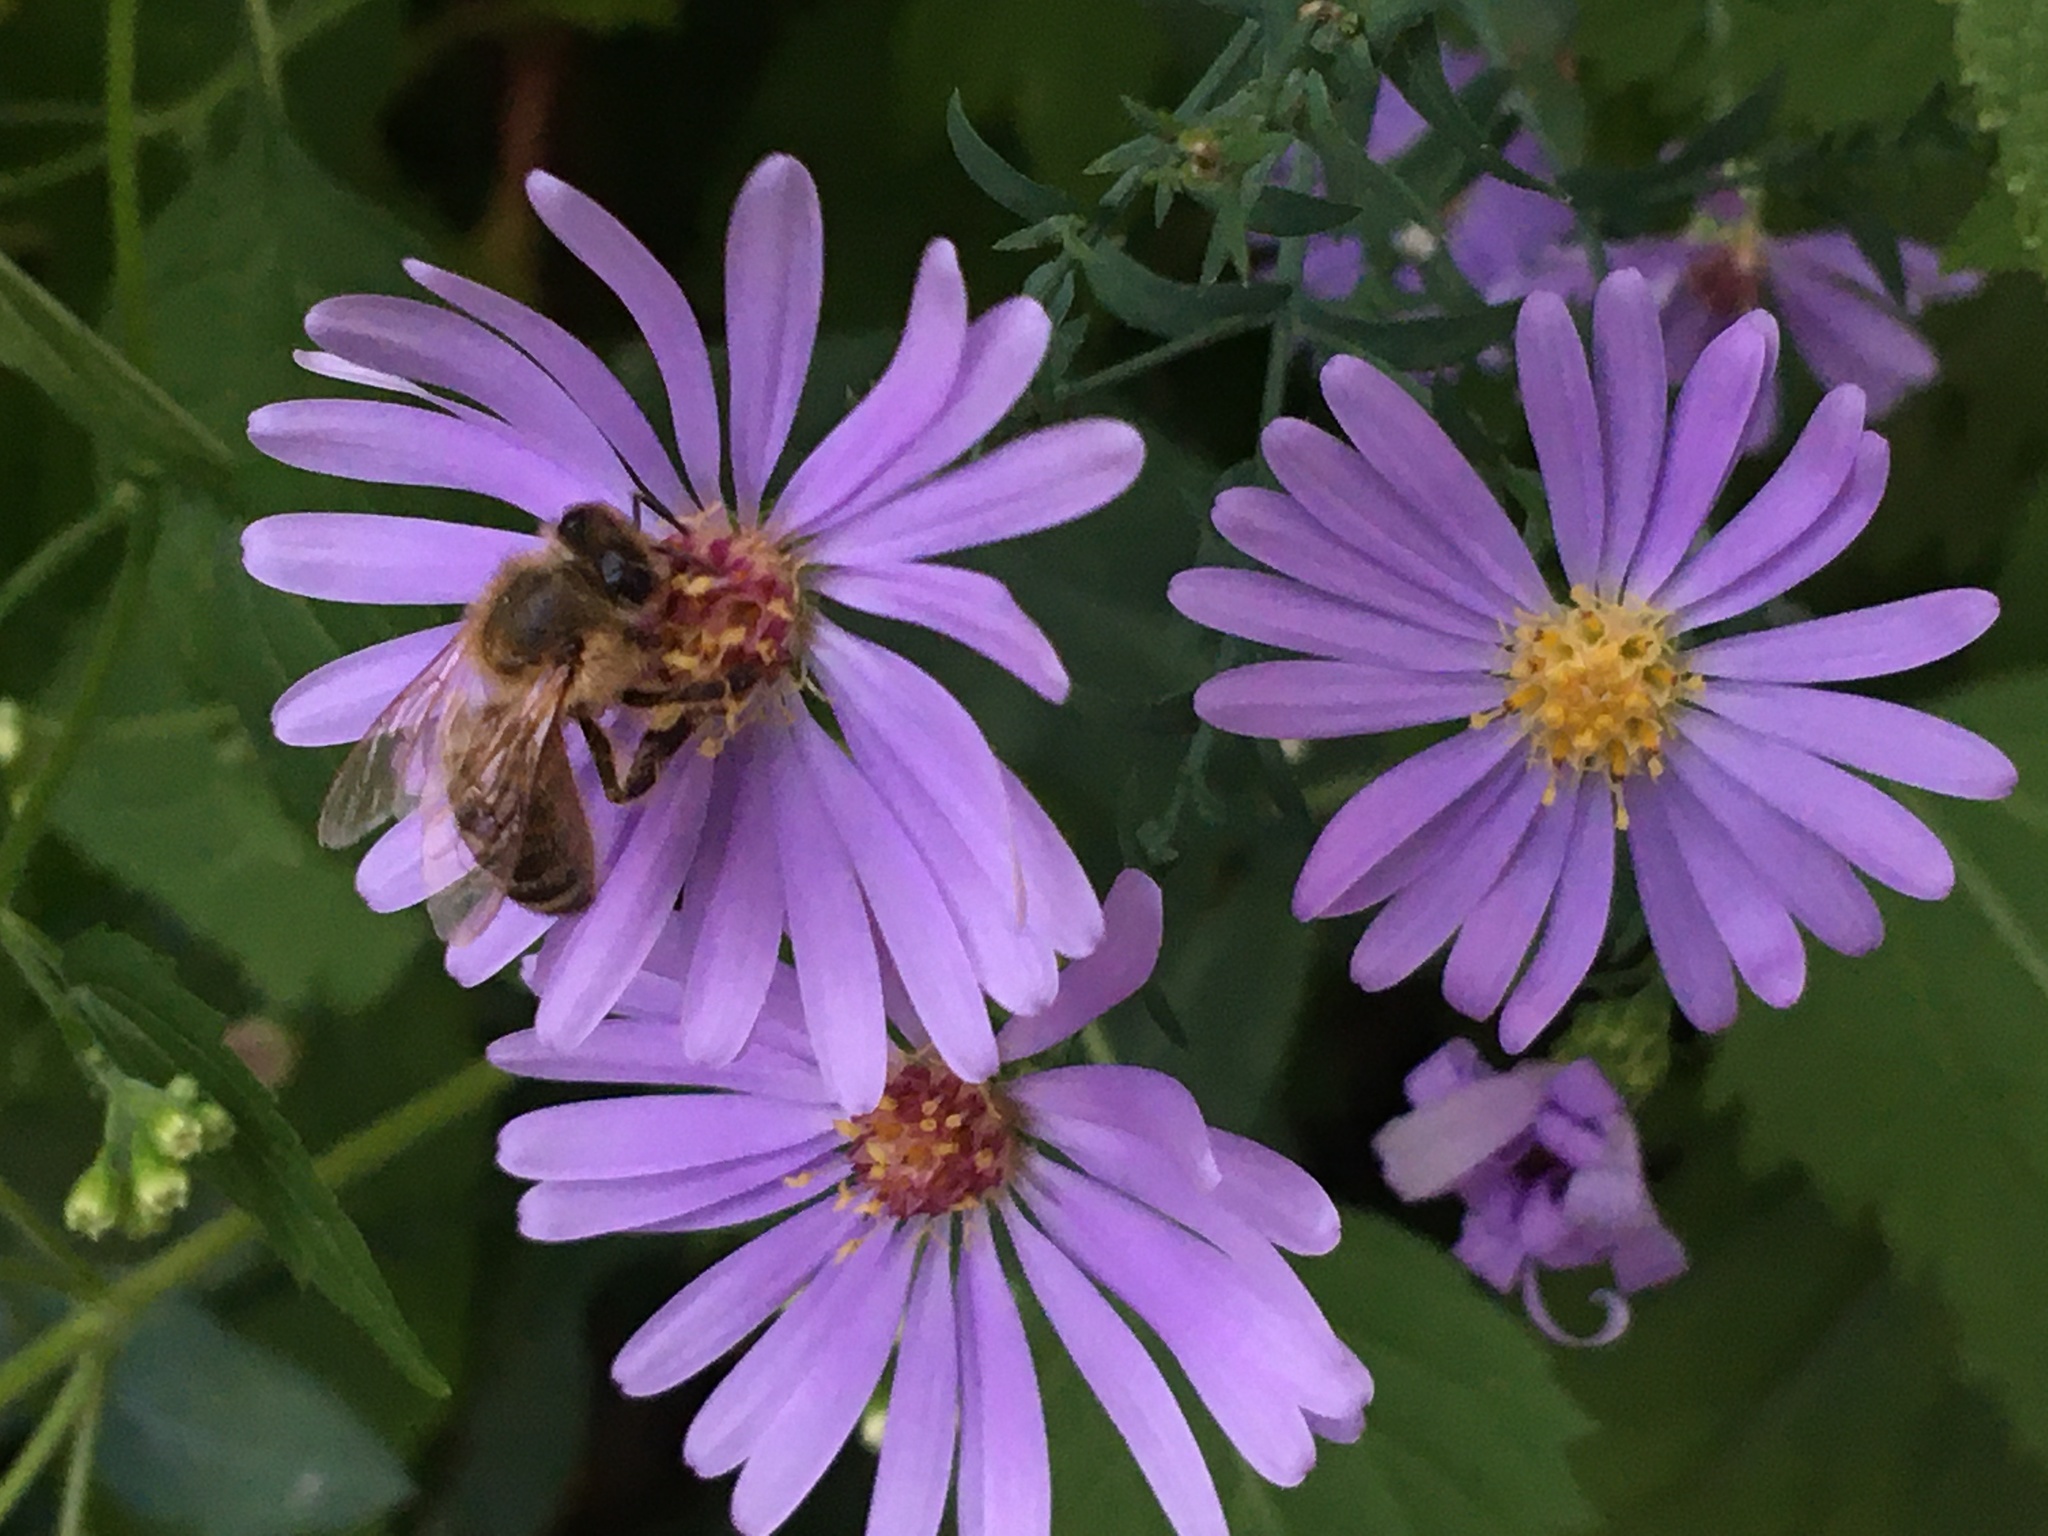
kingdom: Animalia
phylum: Arthropoda
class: Insecta
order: Hymenoptera
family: Apidae
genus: Apis
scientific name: Apis mellifera
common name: Honey bee
